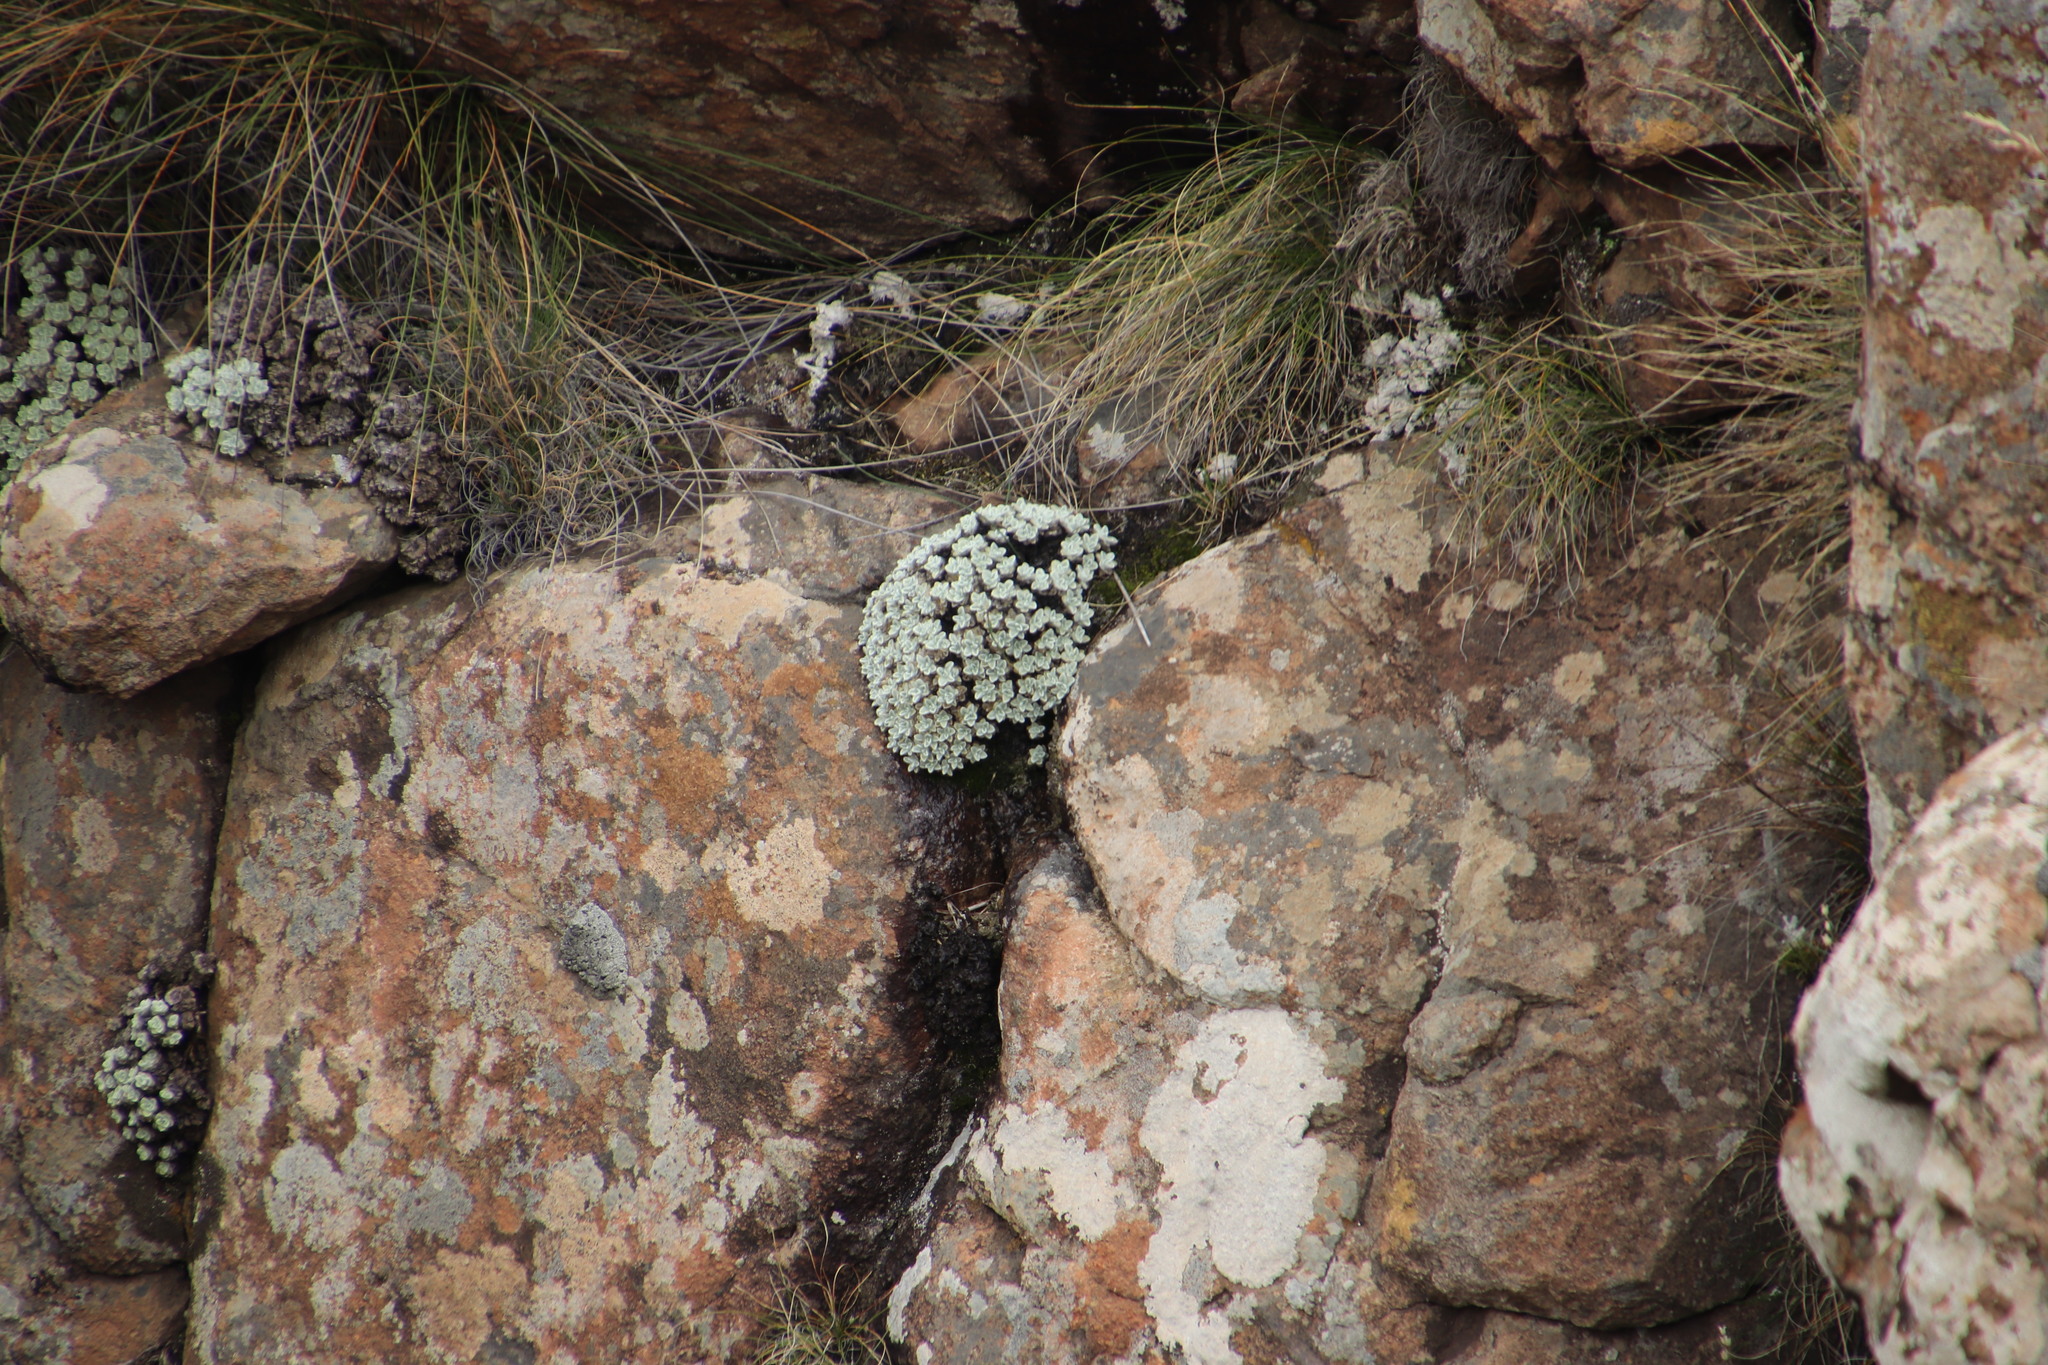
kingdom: Plantae
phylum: Tracheophyta
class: Magnoliopsida
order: Asterales
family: Asteraceae
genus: Helichrysum
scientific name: Helichrysum pagophilum
